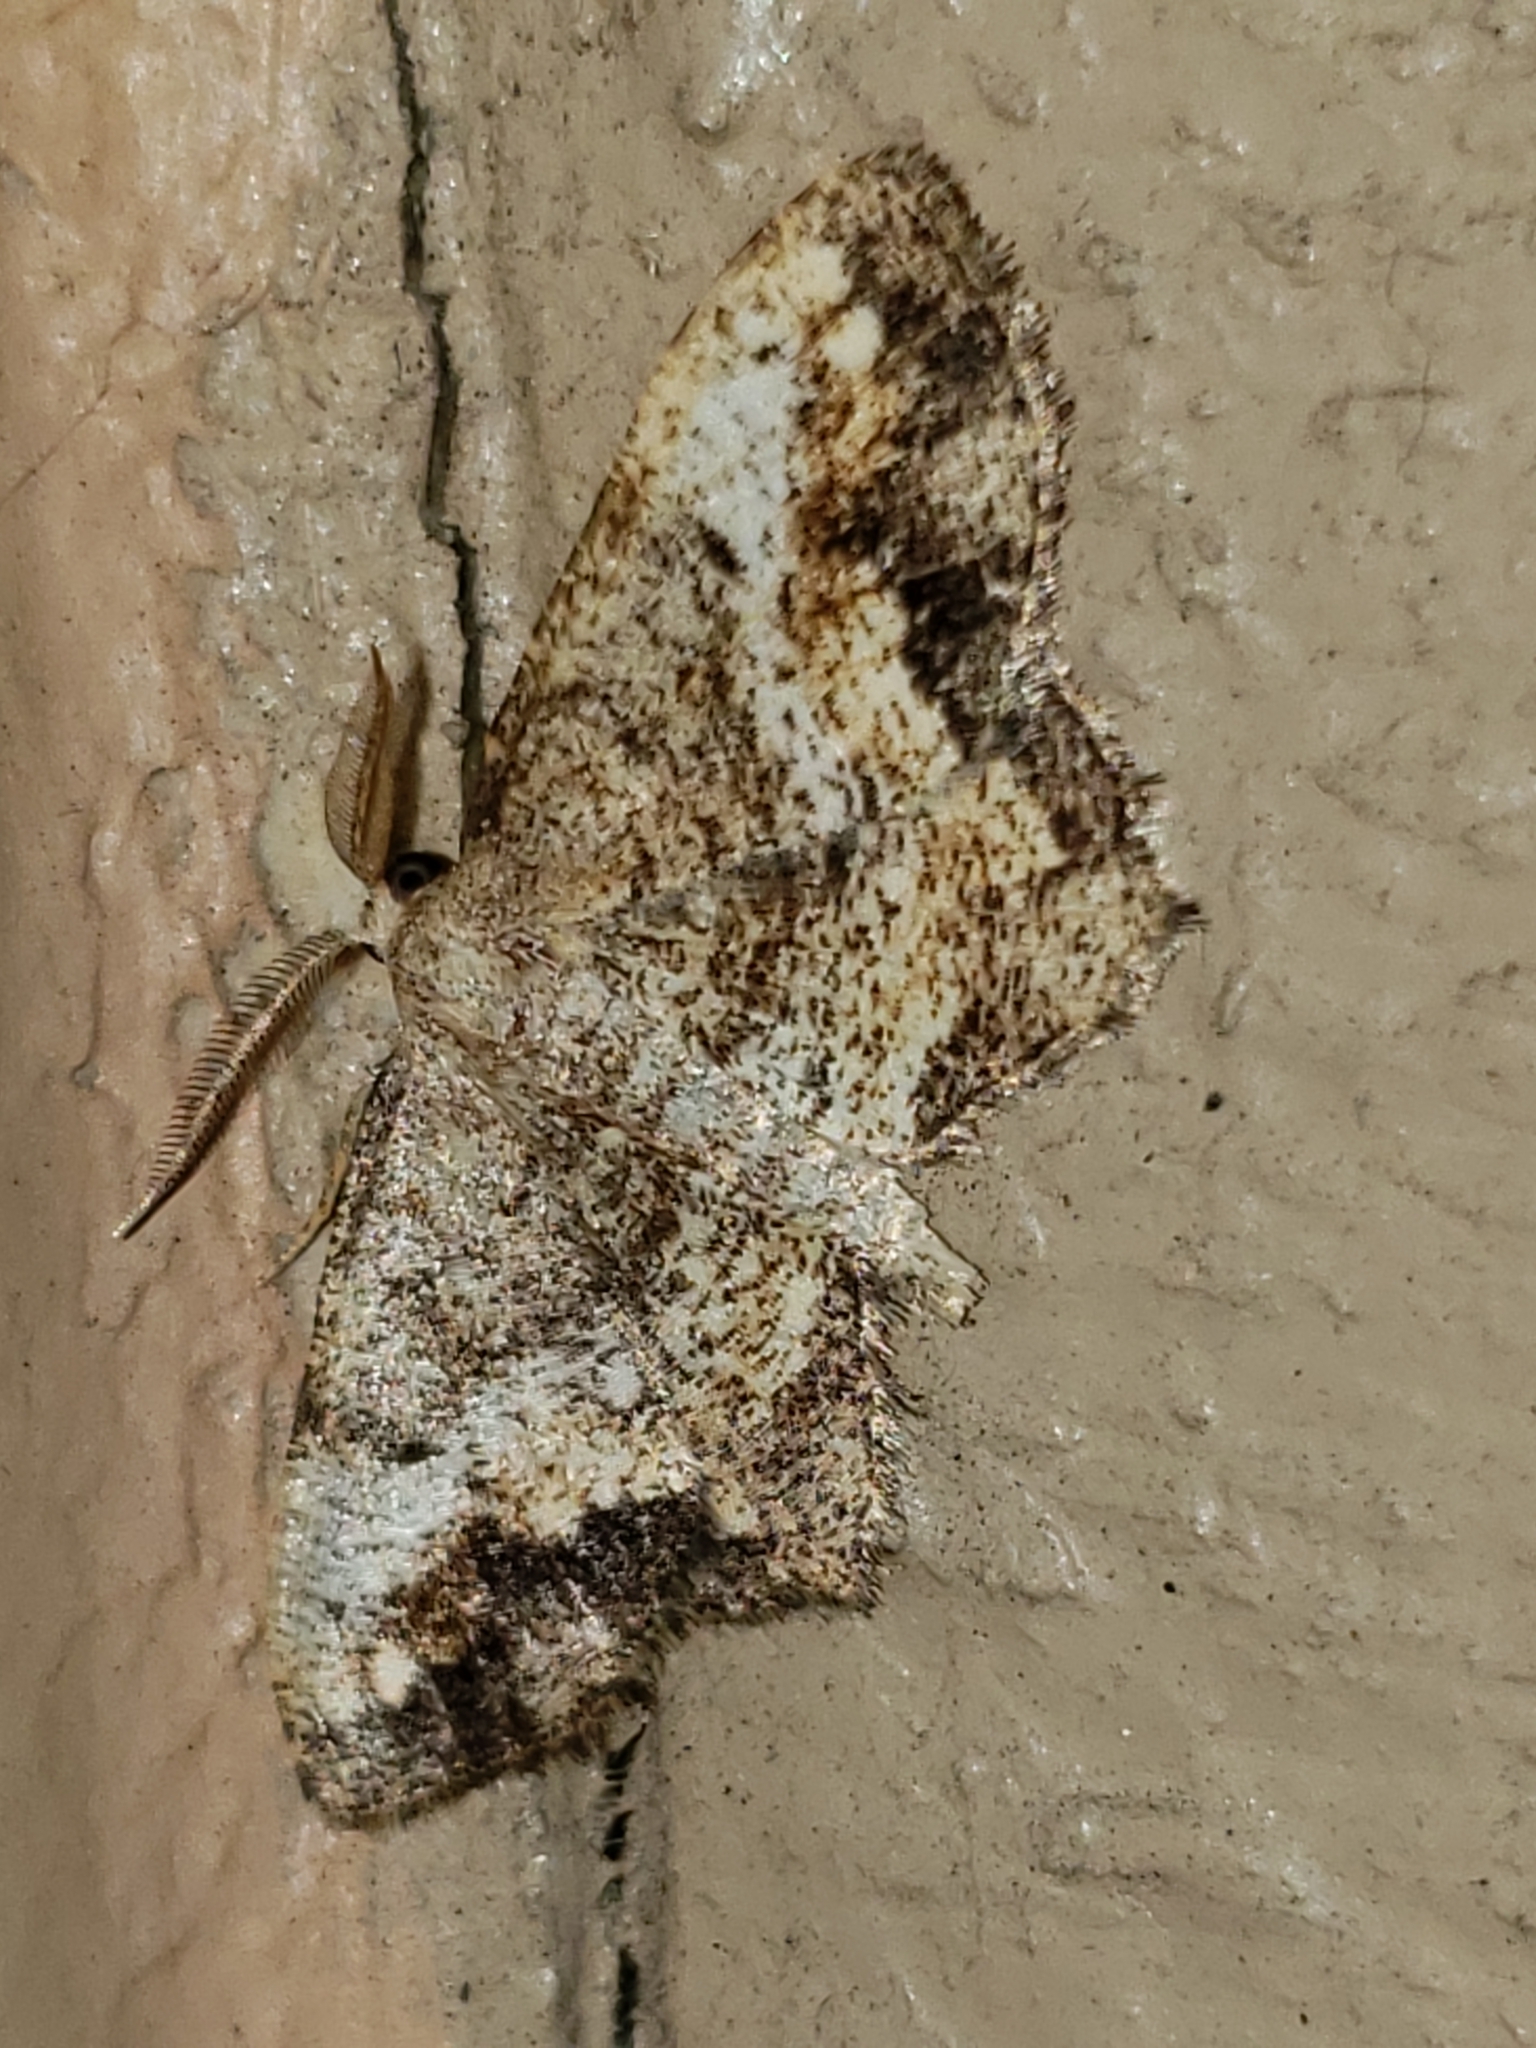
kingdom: Animalia
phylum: Arthropoda
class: Insecta
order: Lepidoptera
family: Geometridae
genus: Hypagyrtis
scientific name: Hypagyrtis unipunctata
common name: One-spotted variant
